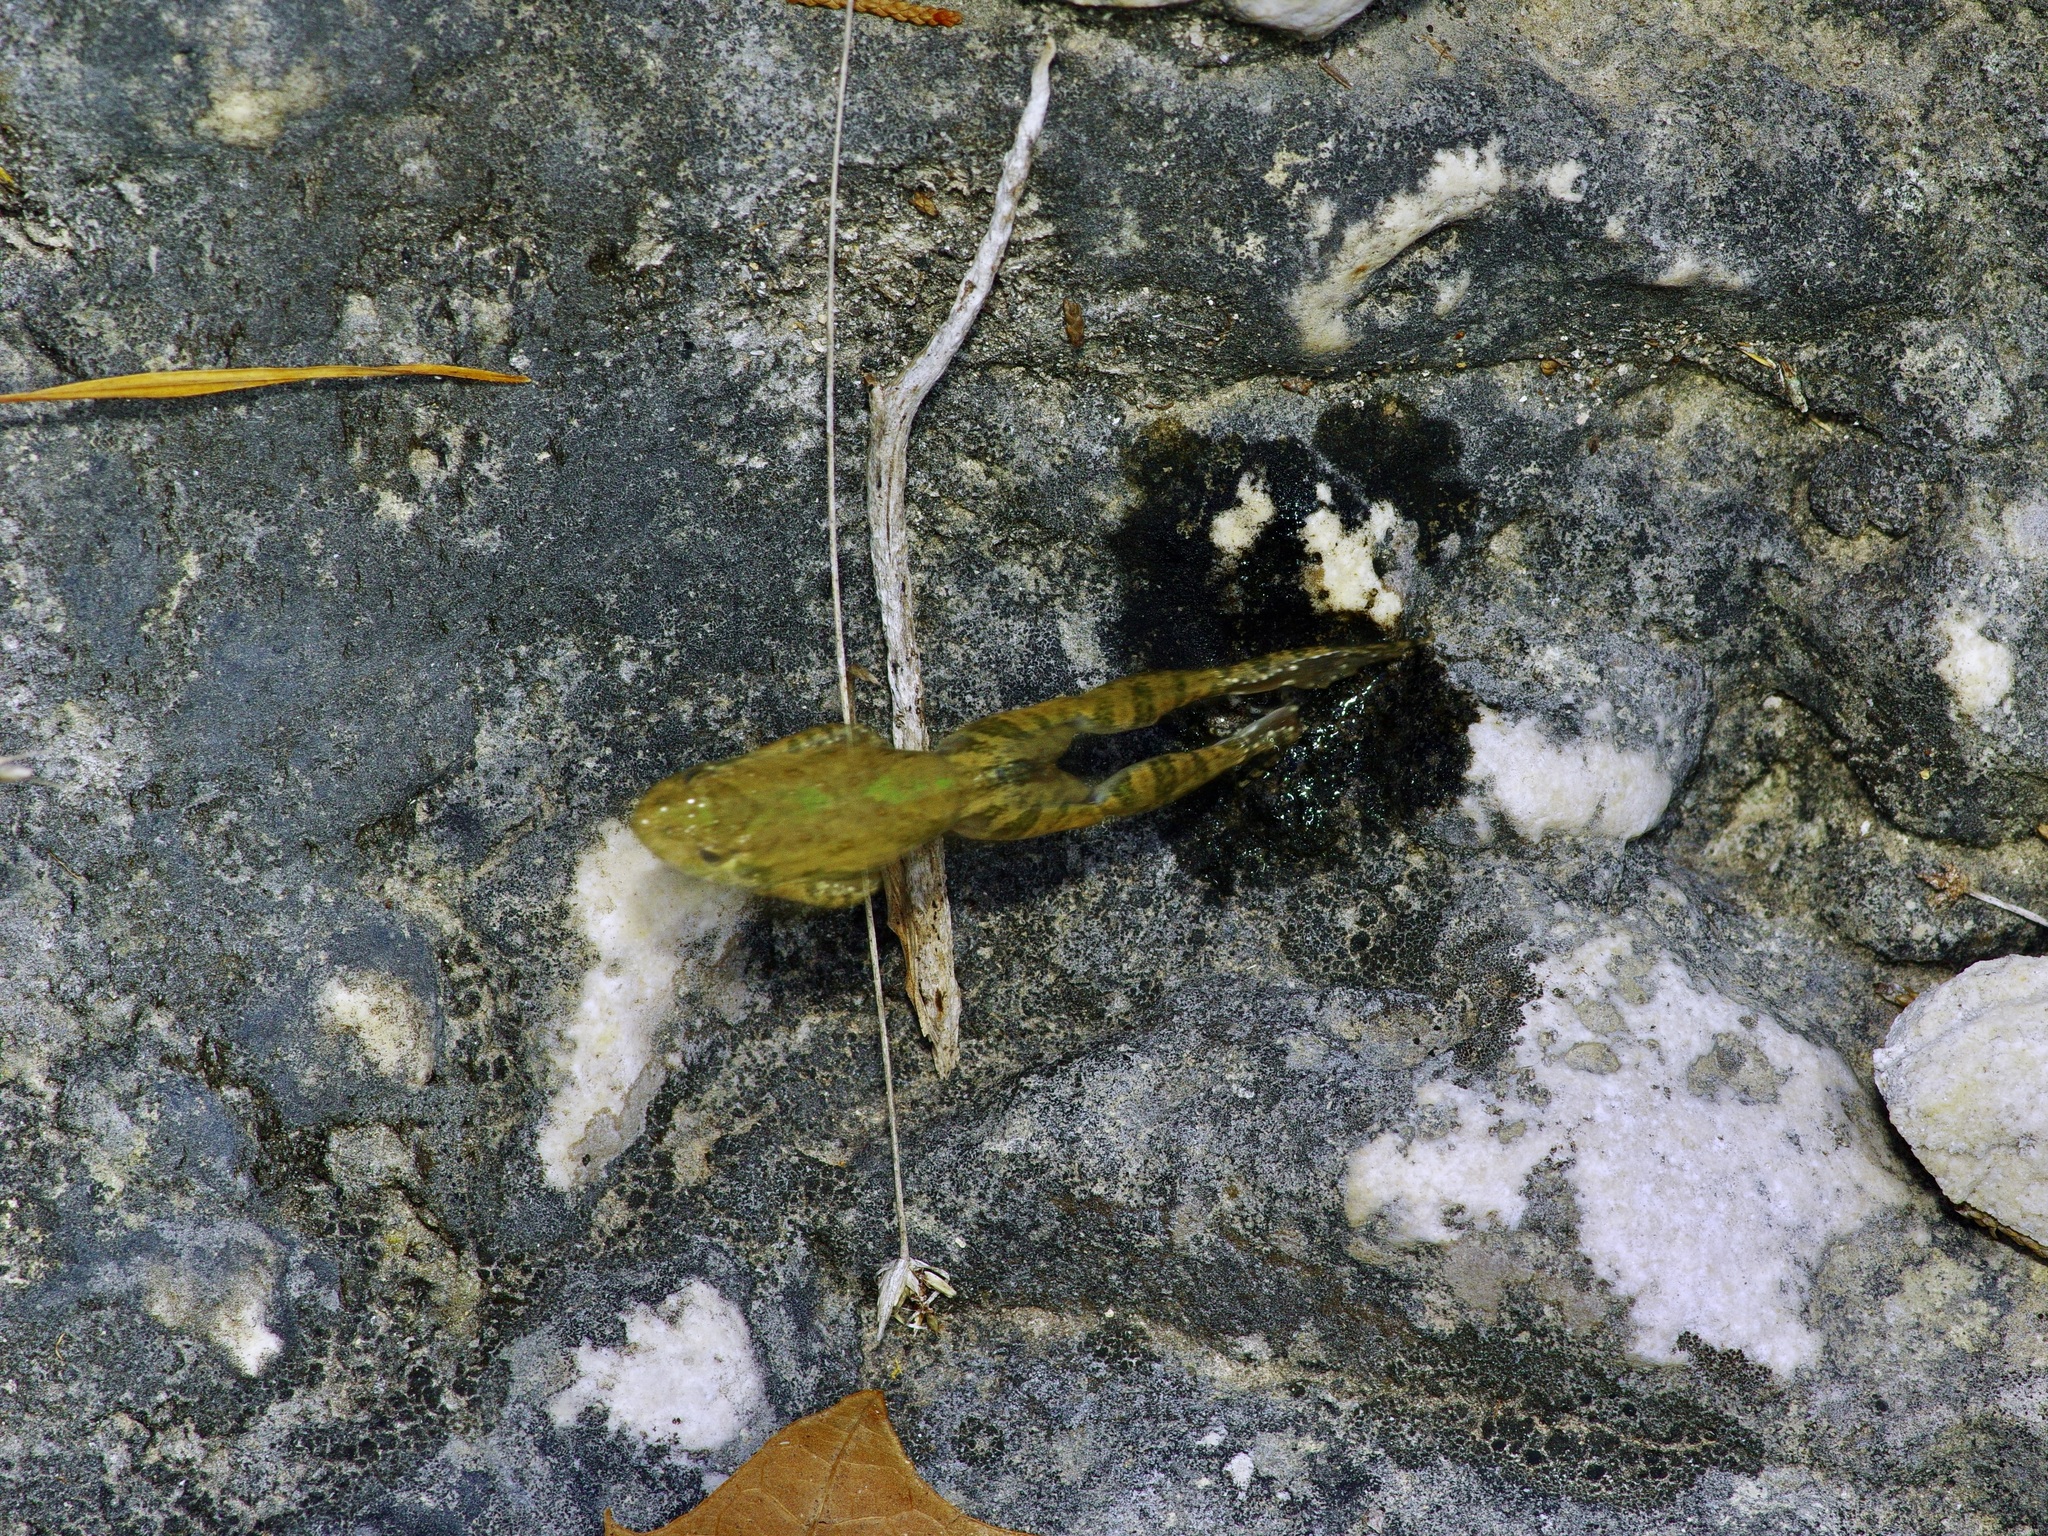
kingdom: Animalia
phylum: Chordata
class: Amphibia
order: Anura
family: Hylidae
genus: Acris
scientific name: Acris blanchardi
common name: Blanchard's cricket frog
